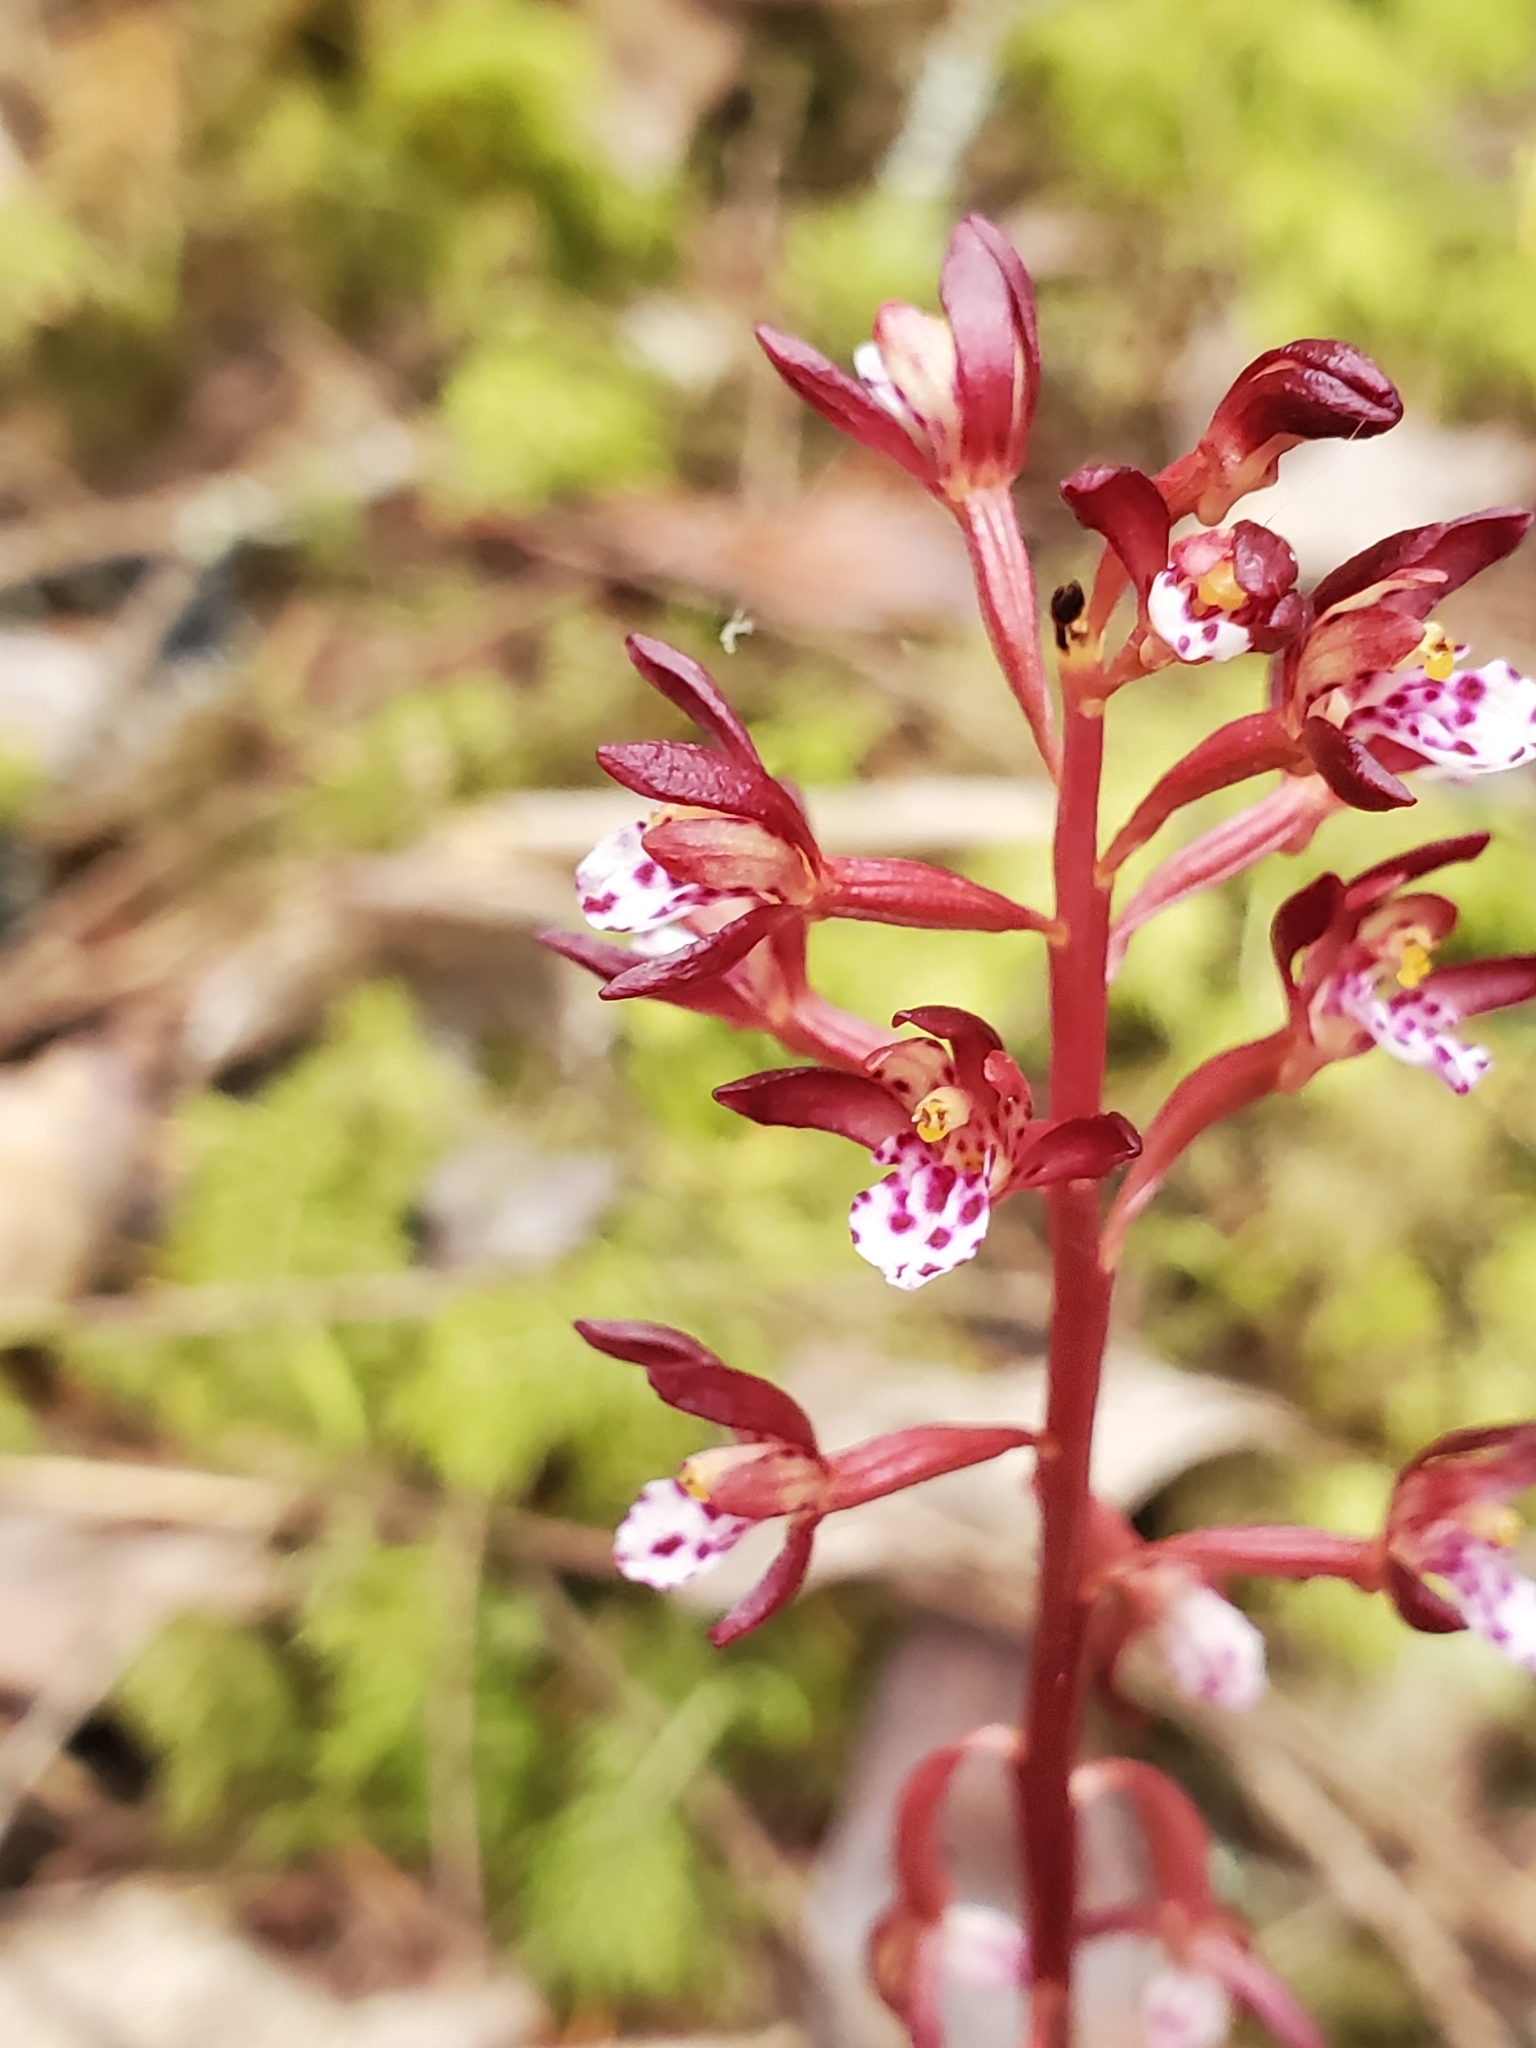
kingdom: Plantae
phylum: Tracheophyta
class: Liliopsida
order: Asparagales
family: Orchidaceae
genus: Corallorhiza
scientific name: Corallorhiza maculata
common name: Spotted coralroot
